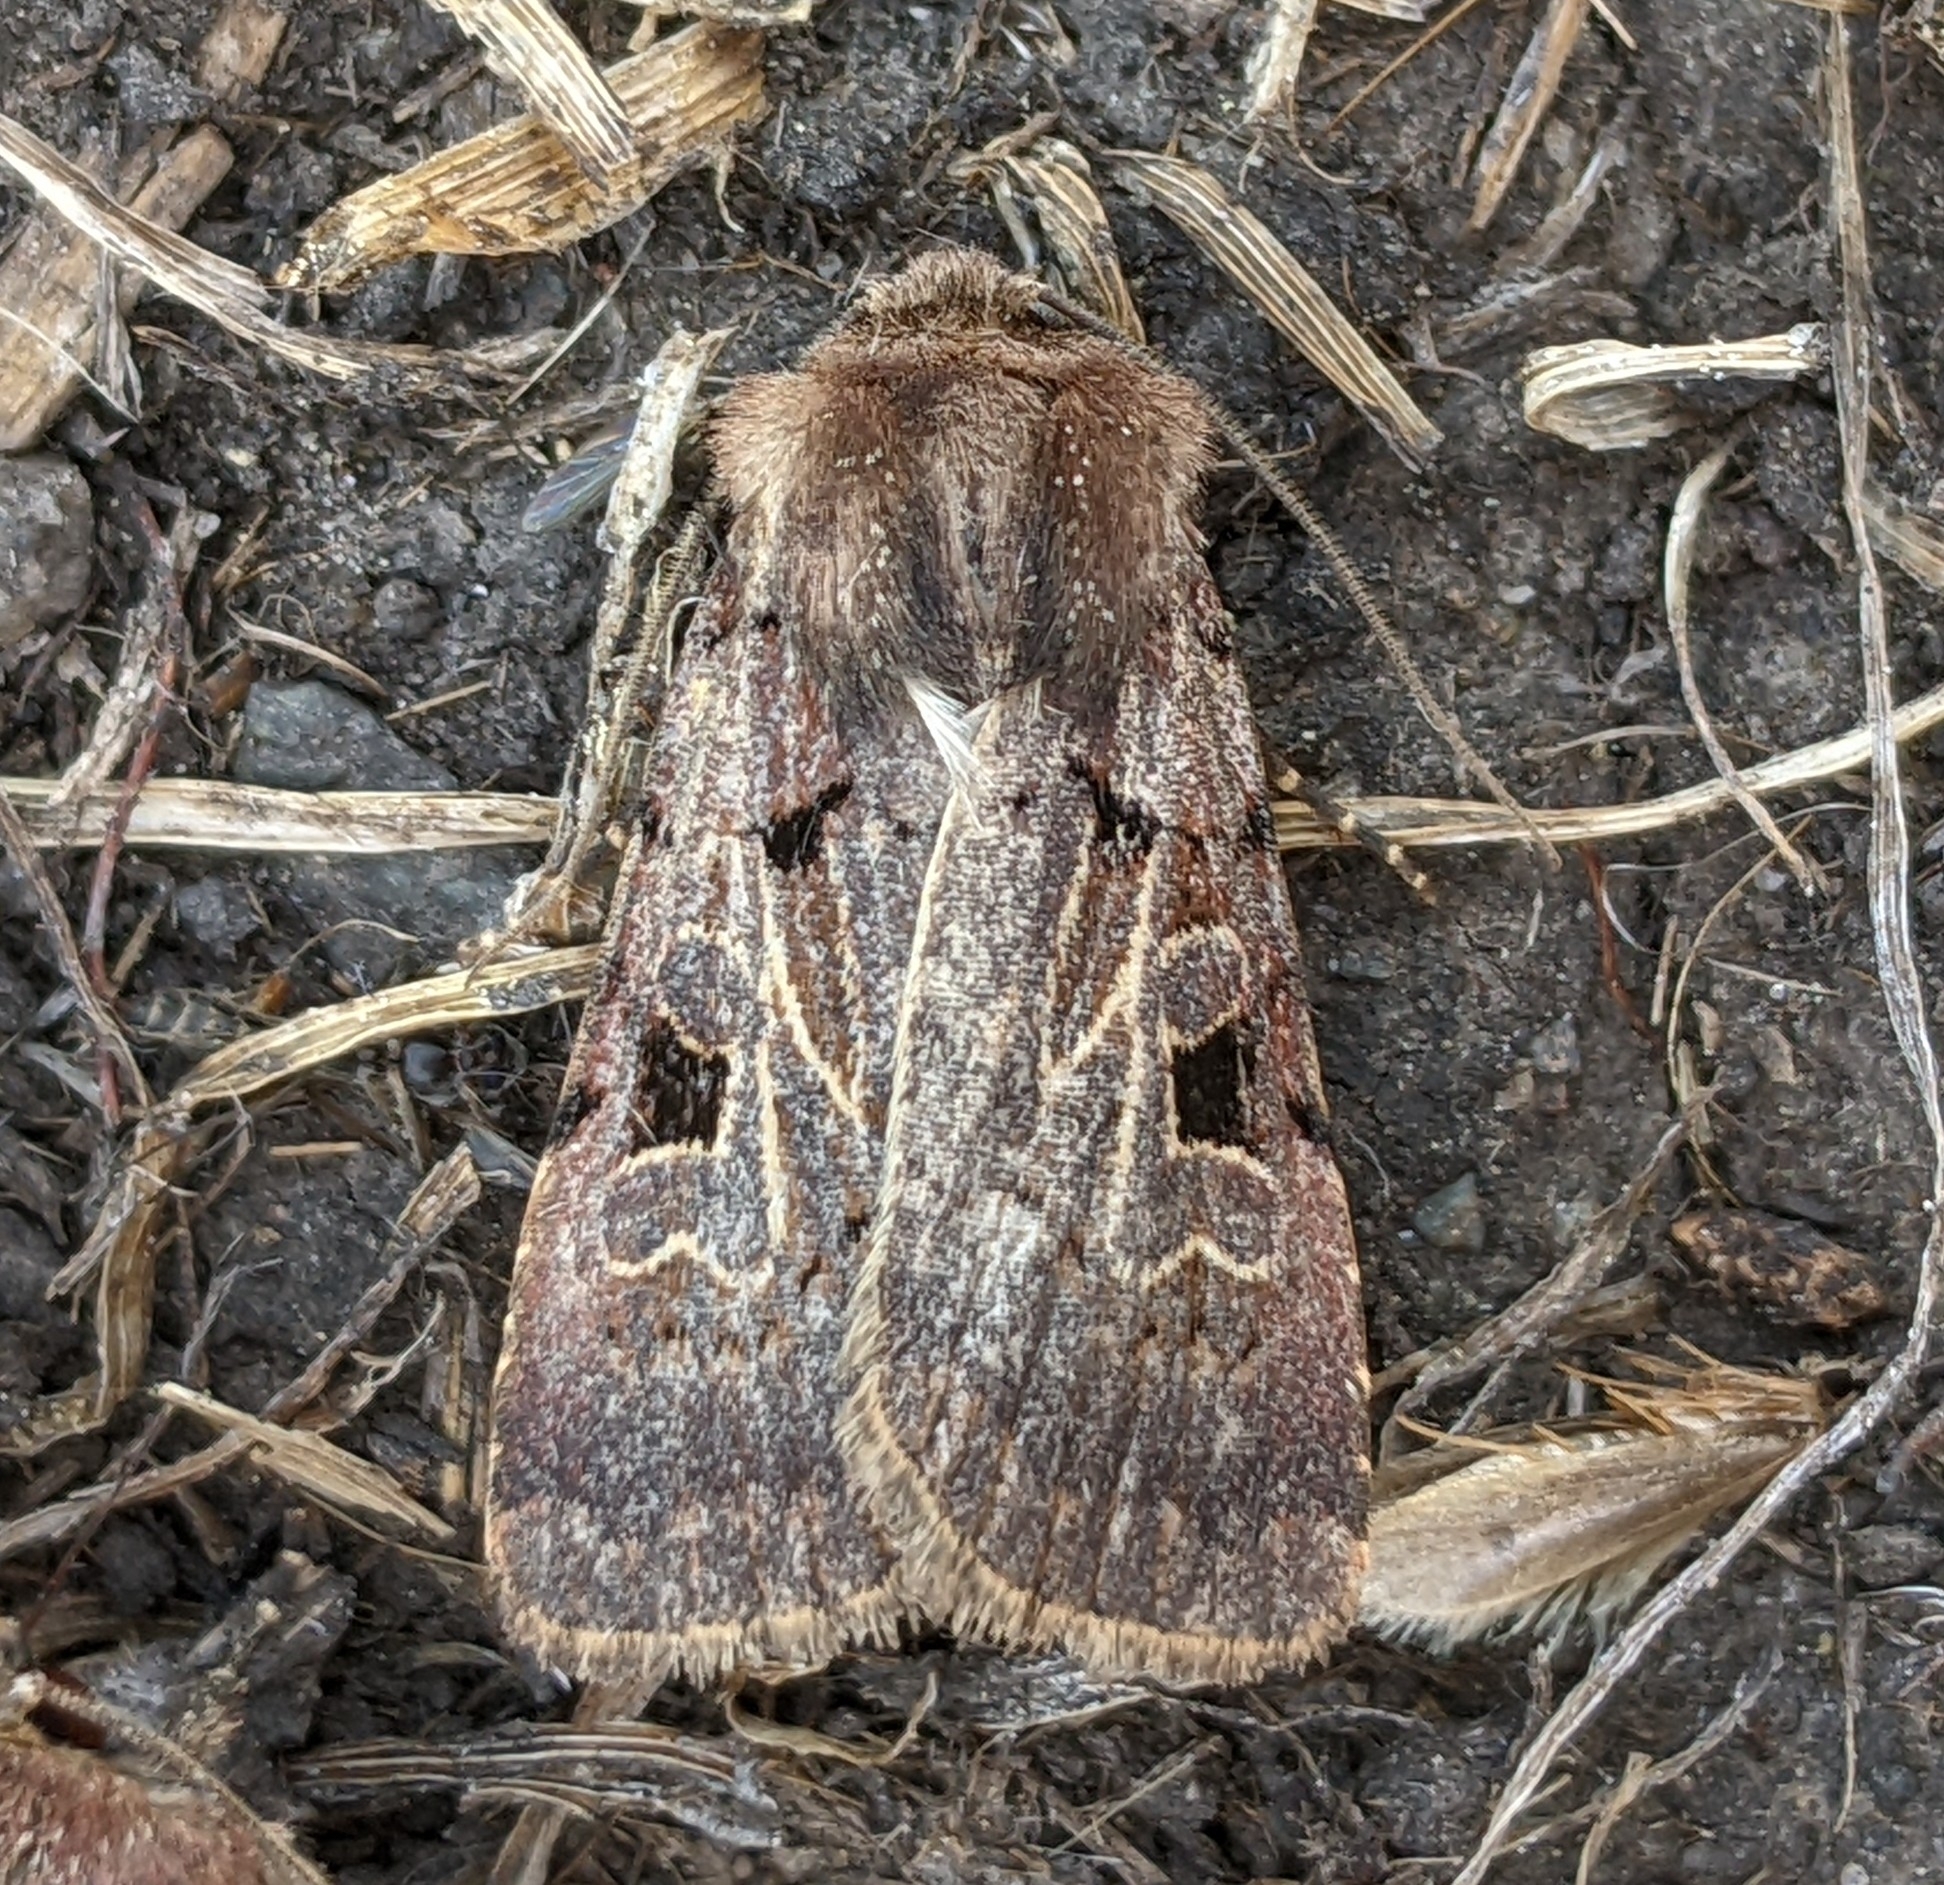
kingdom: Animalia
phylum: Arthropoda
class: Insecta
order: Lepidoptera
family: Noctuidae
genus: Chersotis
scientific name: Chersotis juncta
